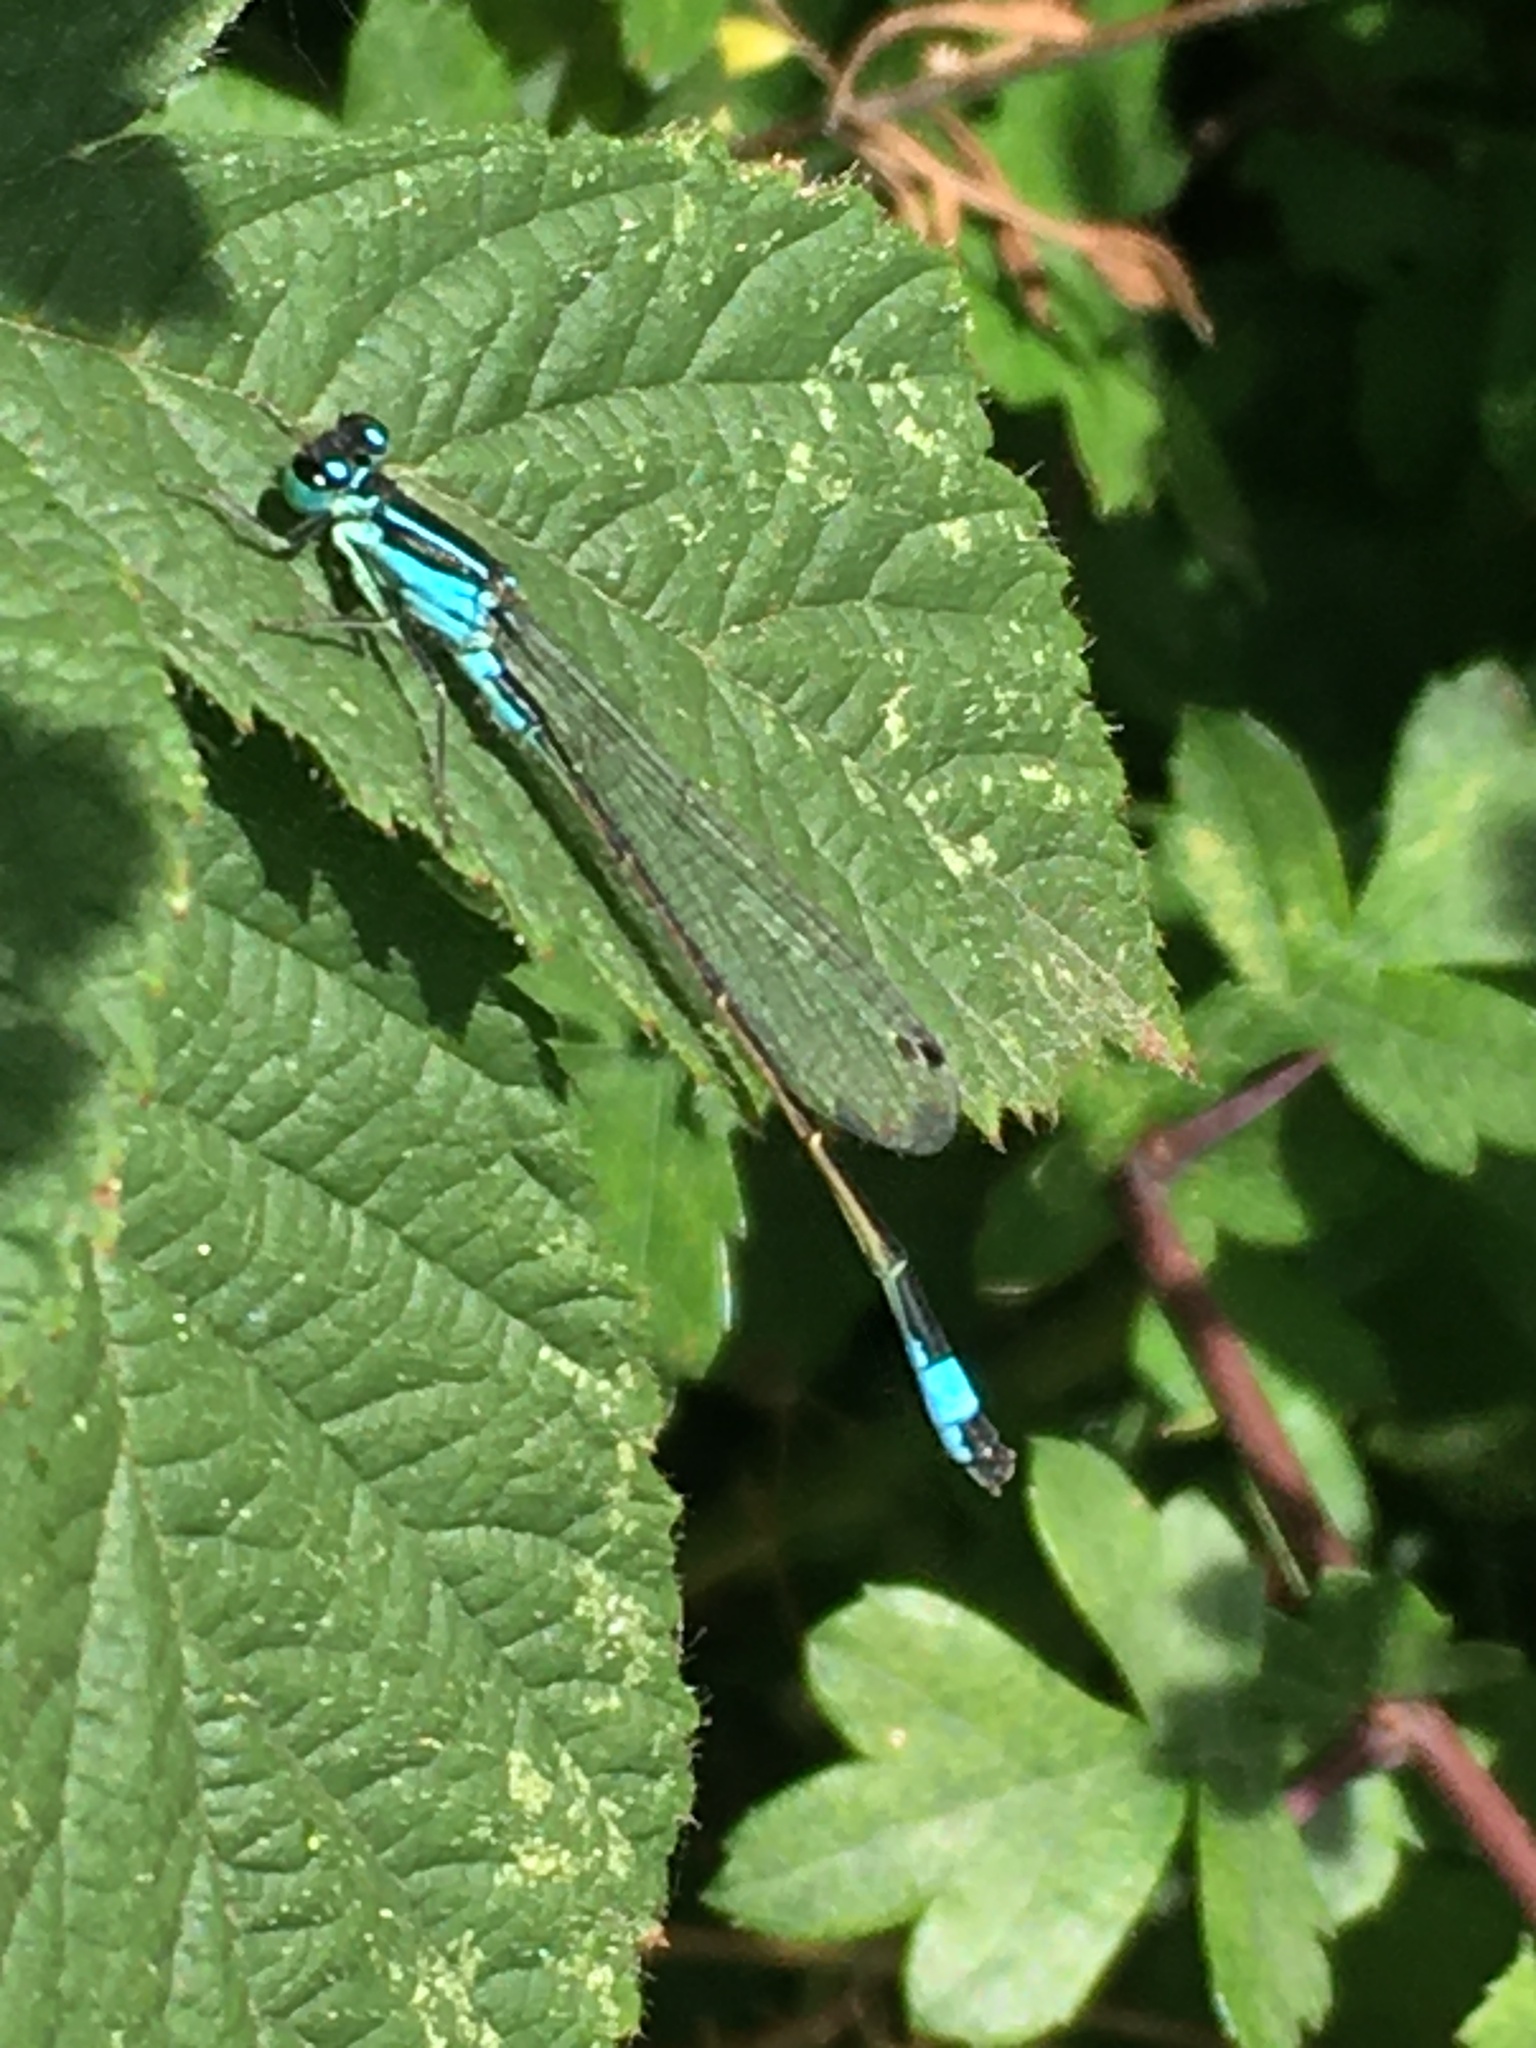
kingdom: Animalia
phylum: Arthropoda
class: Insecta
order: Odonata
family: Coenagrionidae
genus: Ischnura
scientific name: Ischnura elegans
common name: Blue-tailed damselfly
